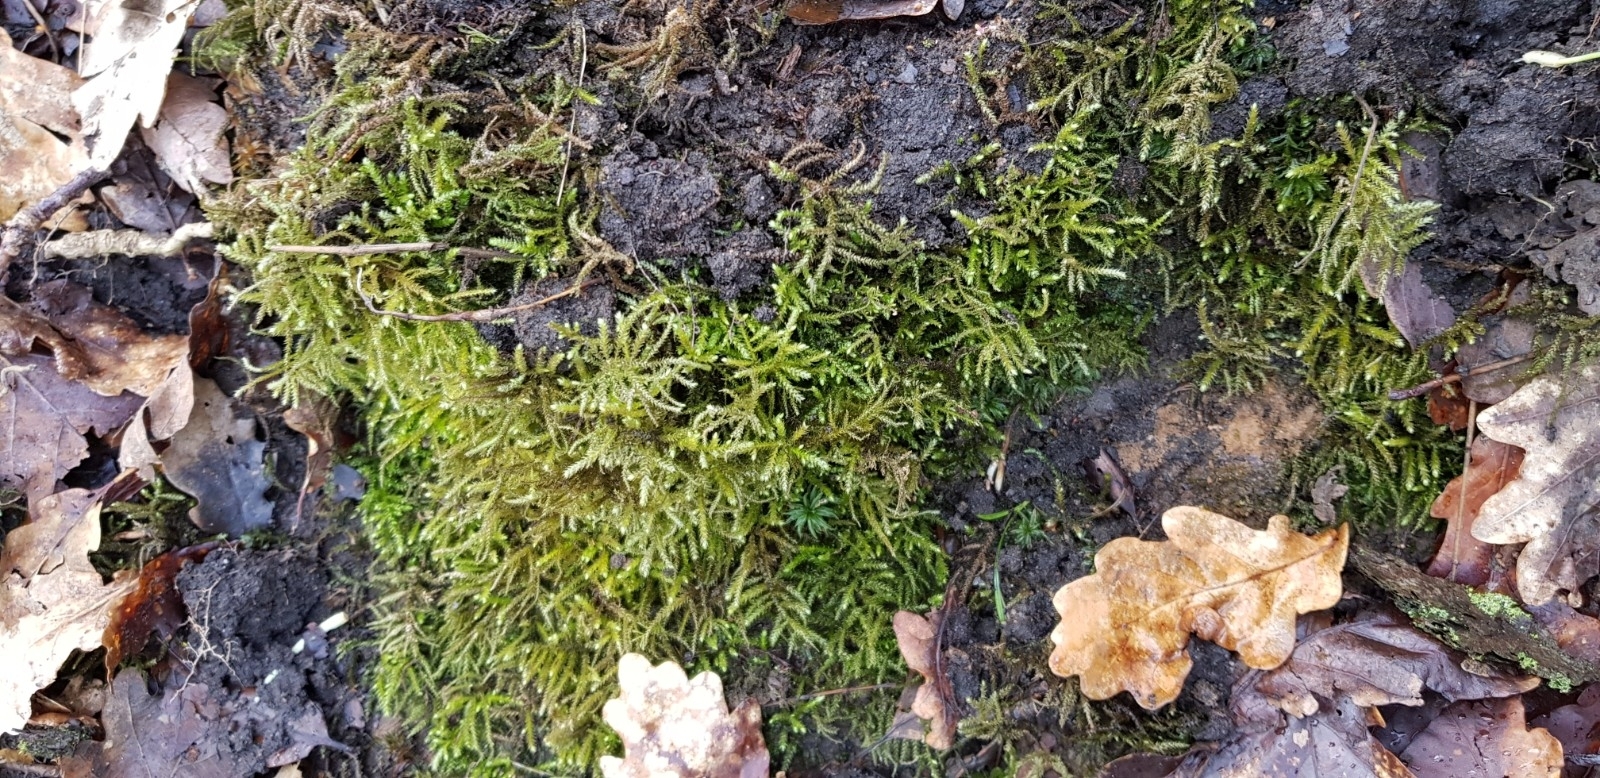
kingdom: Plantae
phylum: Bryophyta
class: Bryopsida
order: Hypnales
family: Brachytheciaceae
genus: Eurhynchium
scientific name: Eurhynchium striatum
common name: Common striated feather-moss
